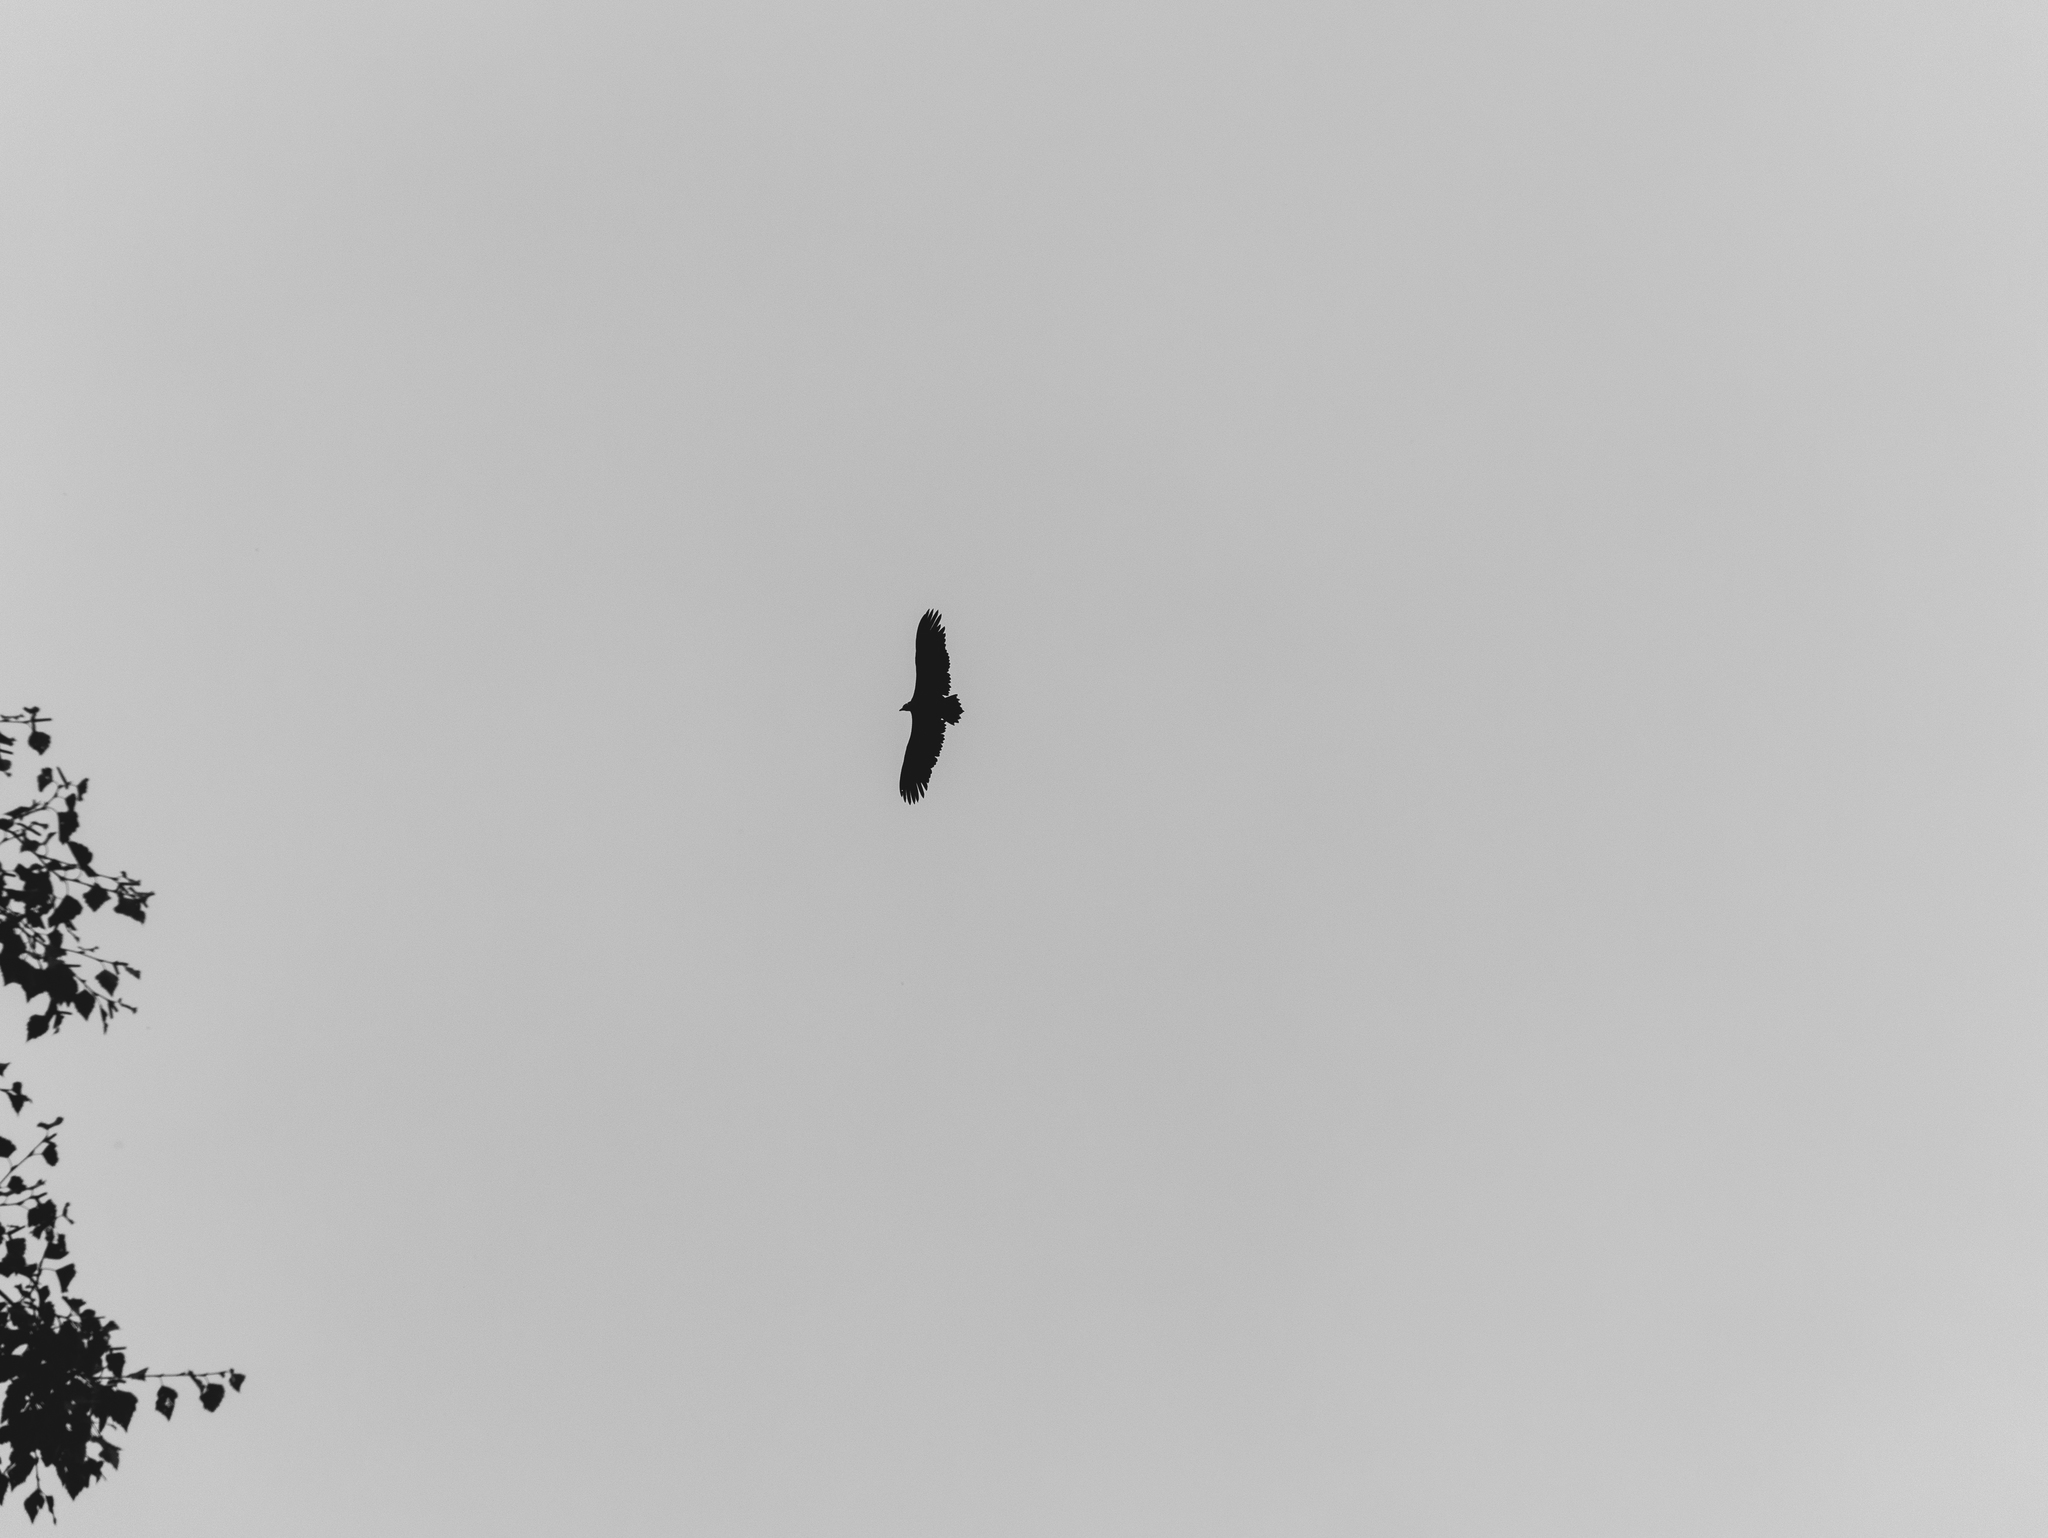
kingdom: Animalia
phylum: Chordata
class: Aves
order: Accipitriformes
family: Accipitridae
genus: Aegypius
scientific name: Aegypius monachus
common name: Cinereous vulture
